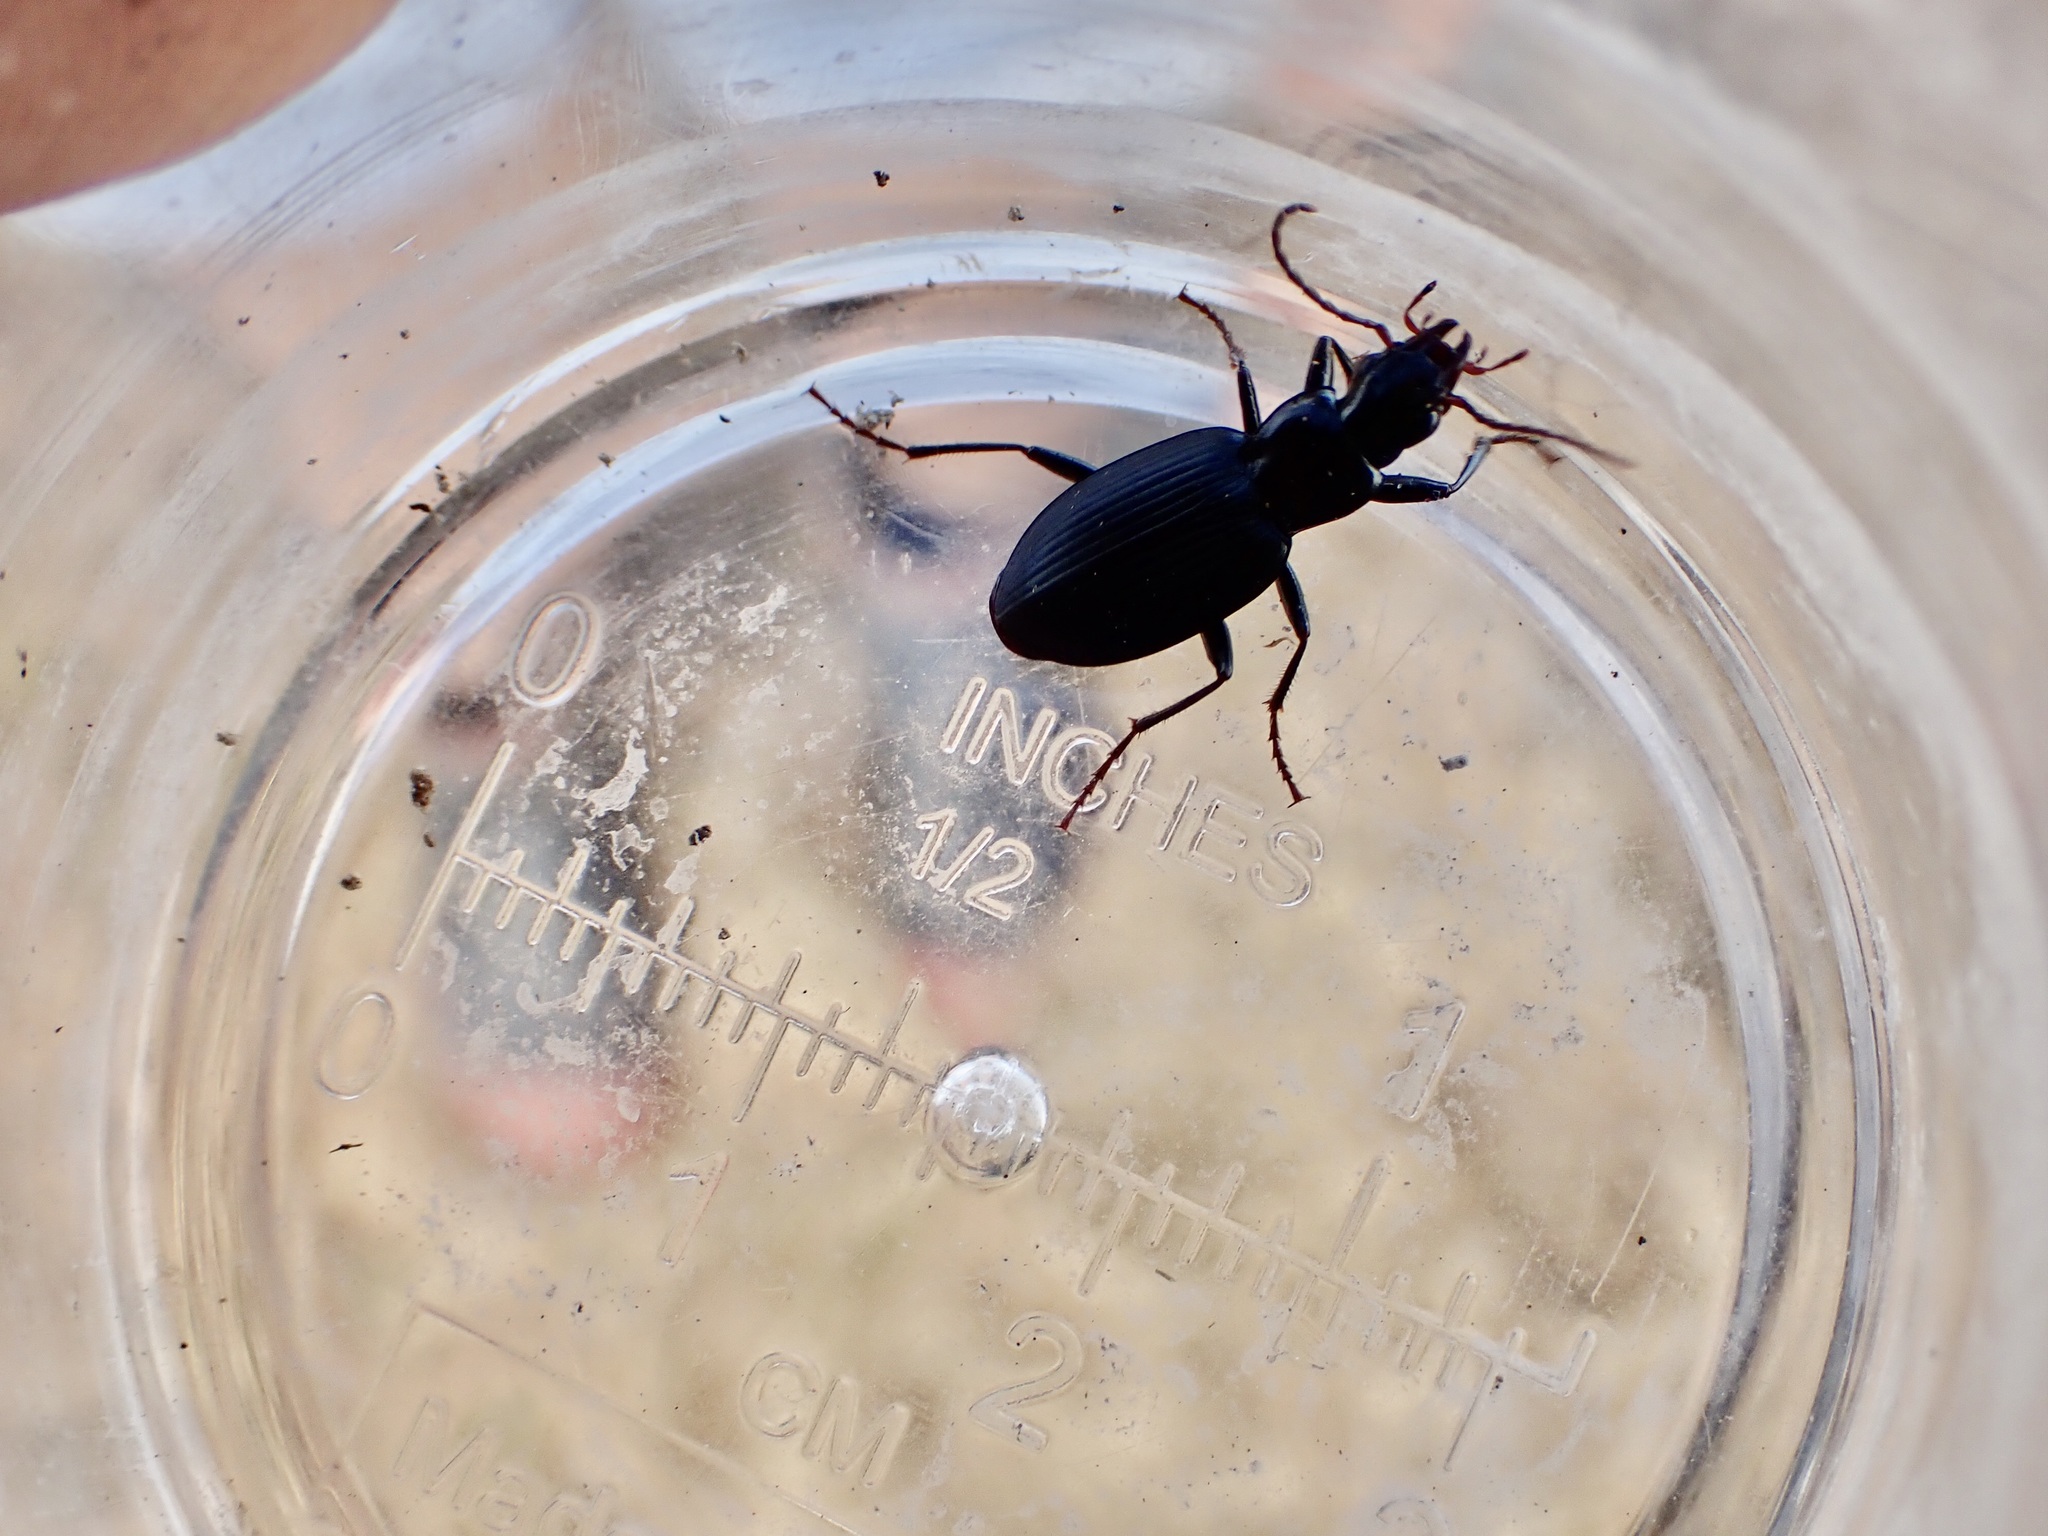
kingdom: Animalia
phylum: Arthropoda
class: Insecta
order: Coleoptera
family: Carabidae
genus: Laemostenus
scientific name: Laemostenus complanatus
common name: Cosmopolitan ground beetle
